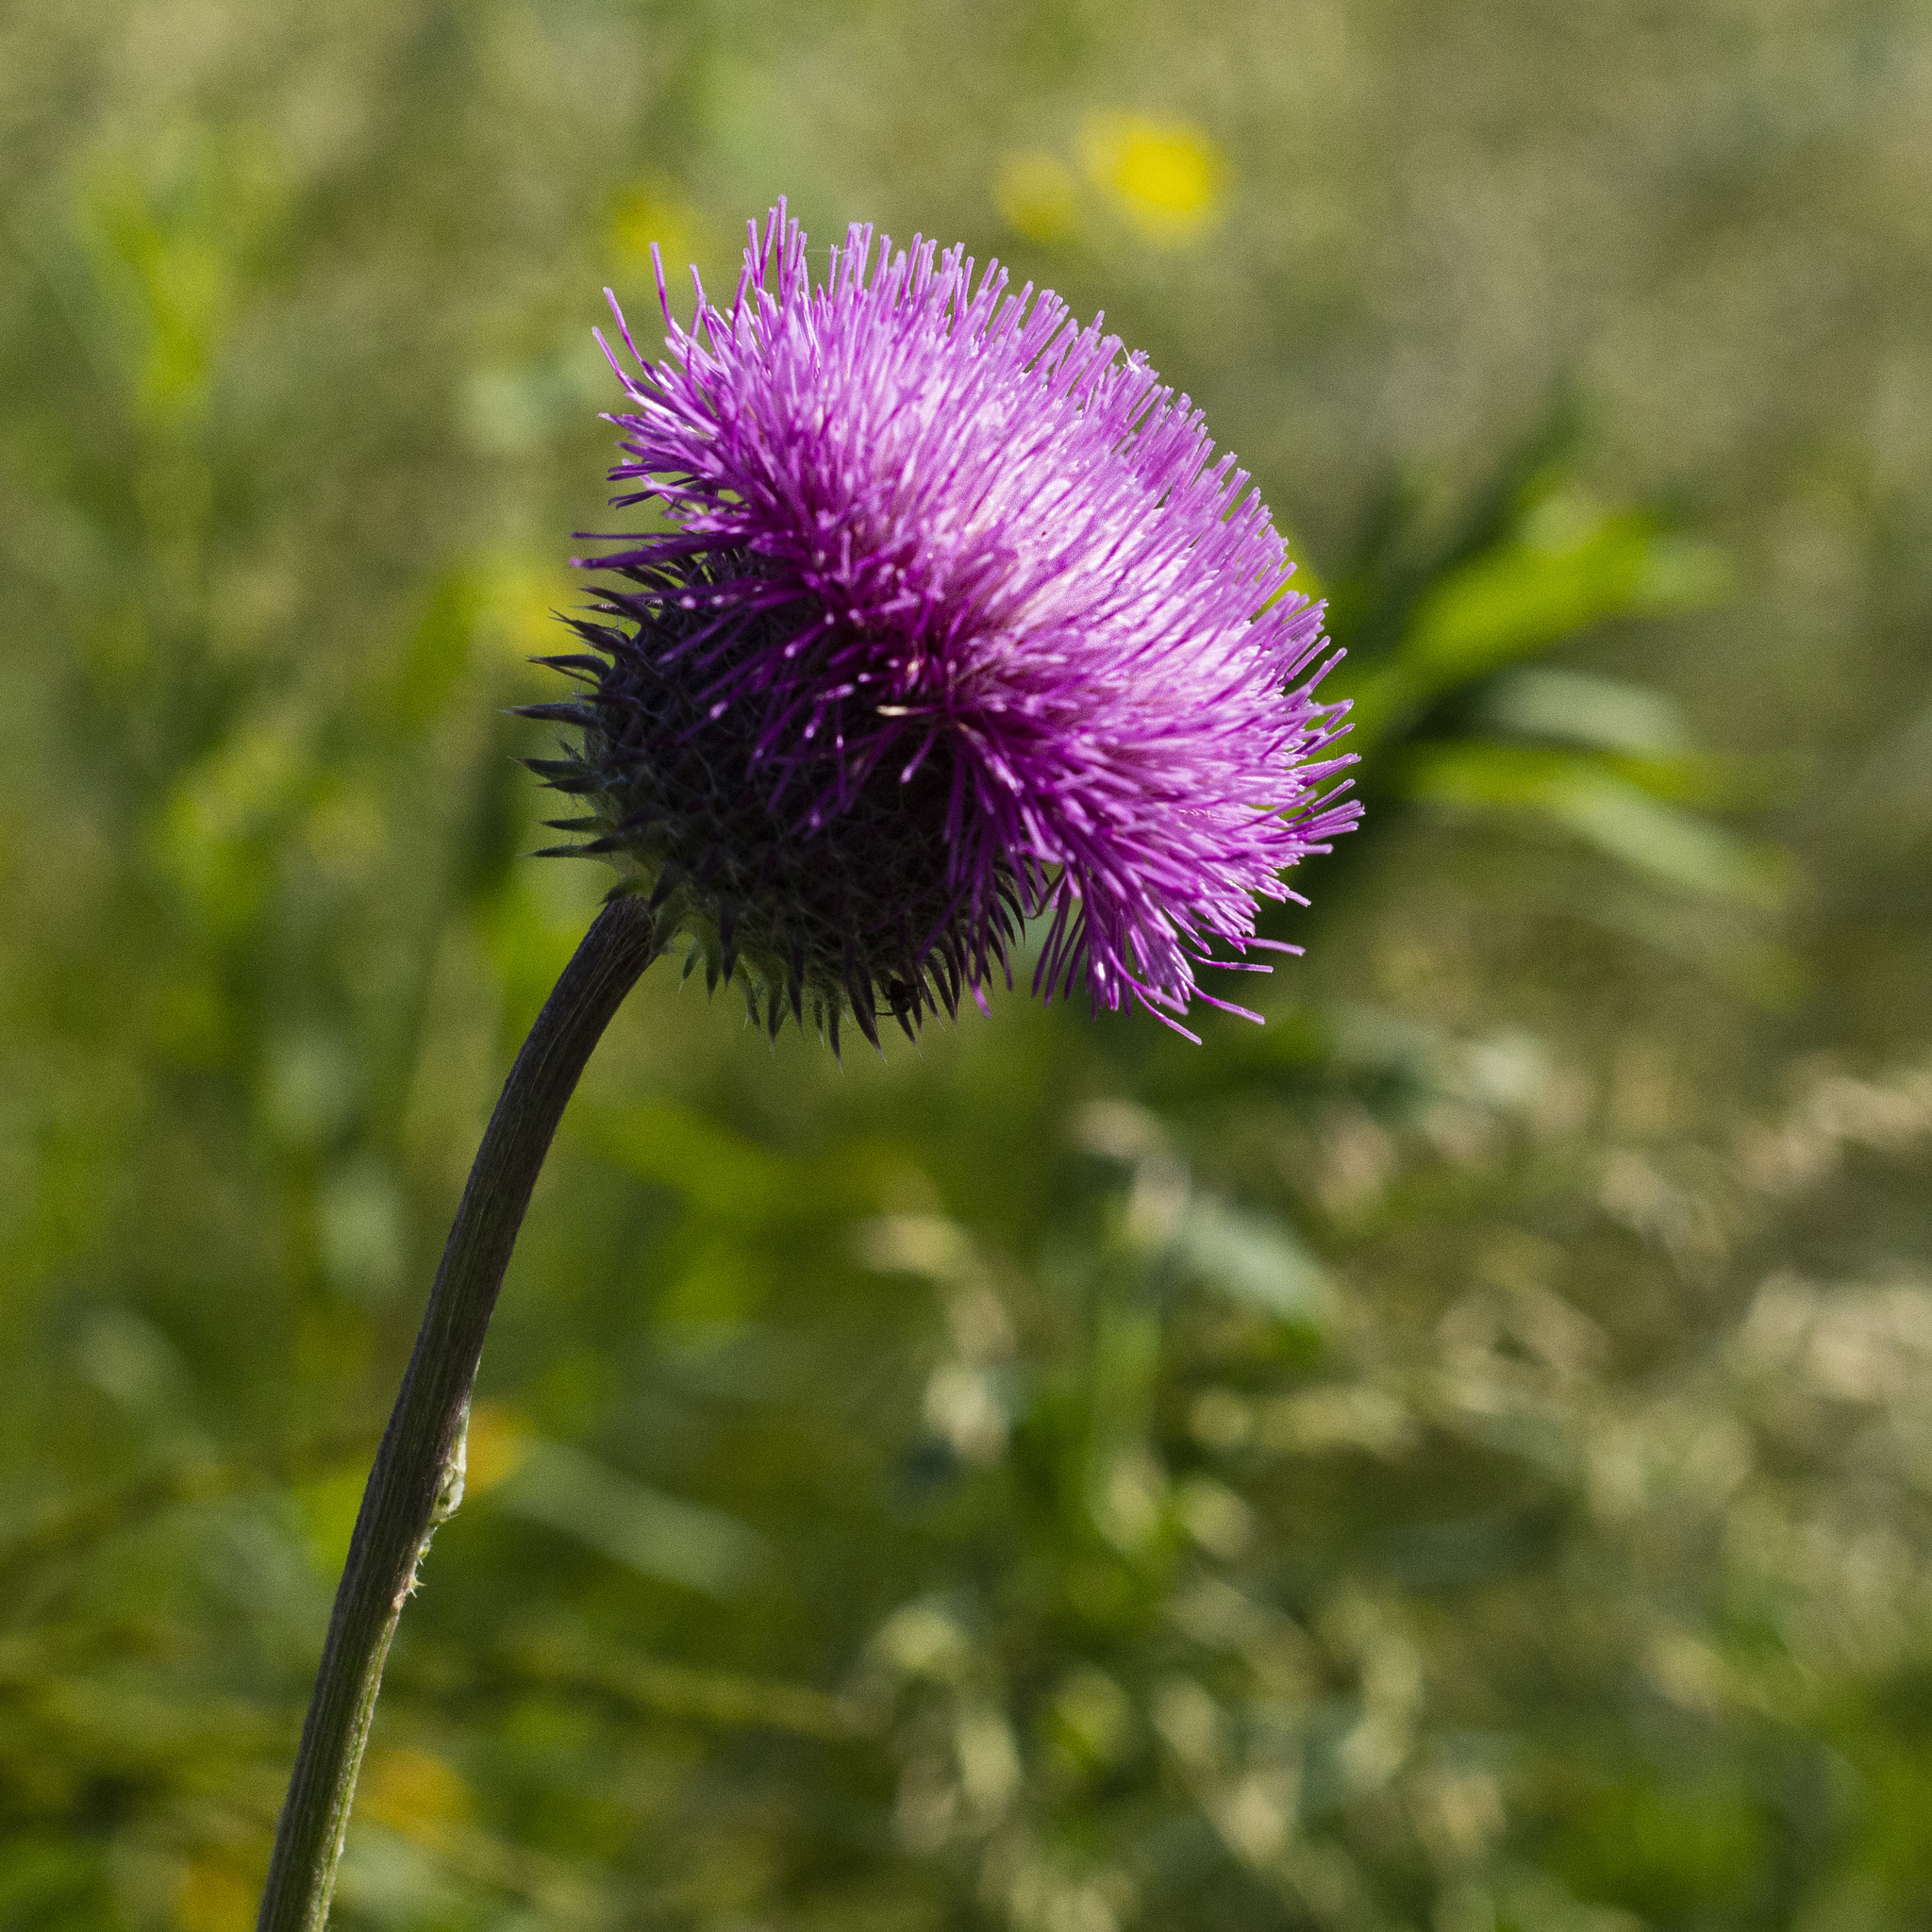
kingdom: Plantae
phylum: Tracheophyta
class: Magnoliopsida
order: Asterales
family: Asteraceae
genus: Carduus
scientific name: Carduus uncinatus
